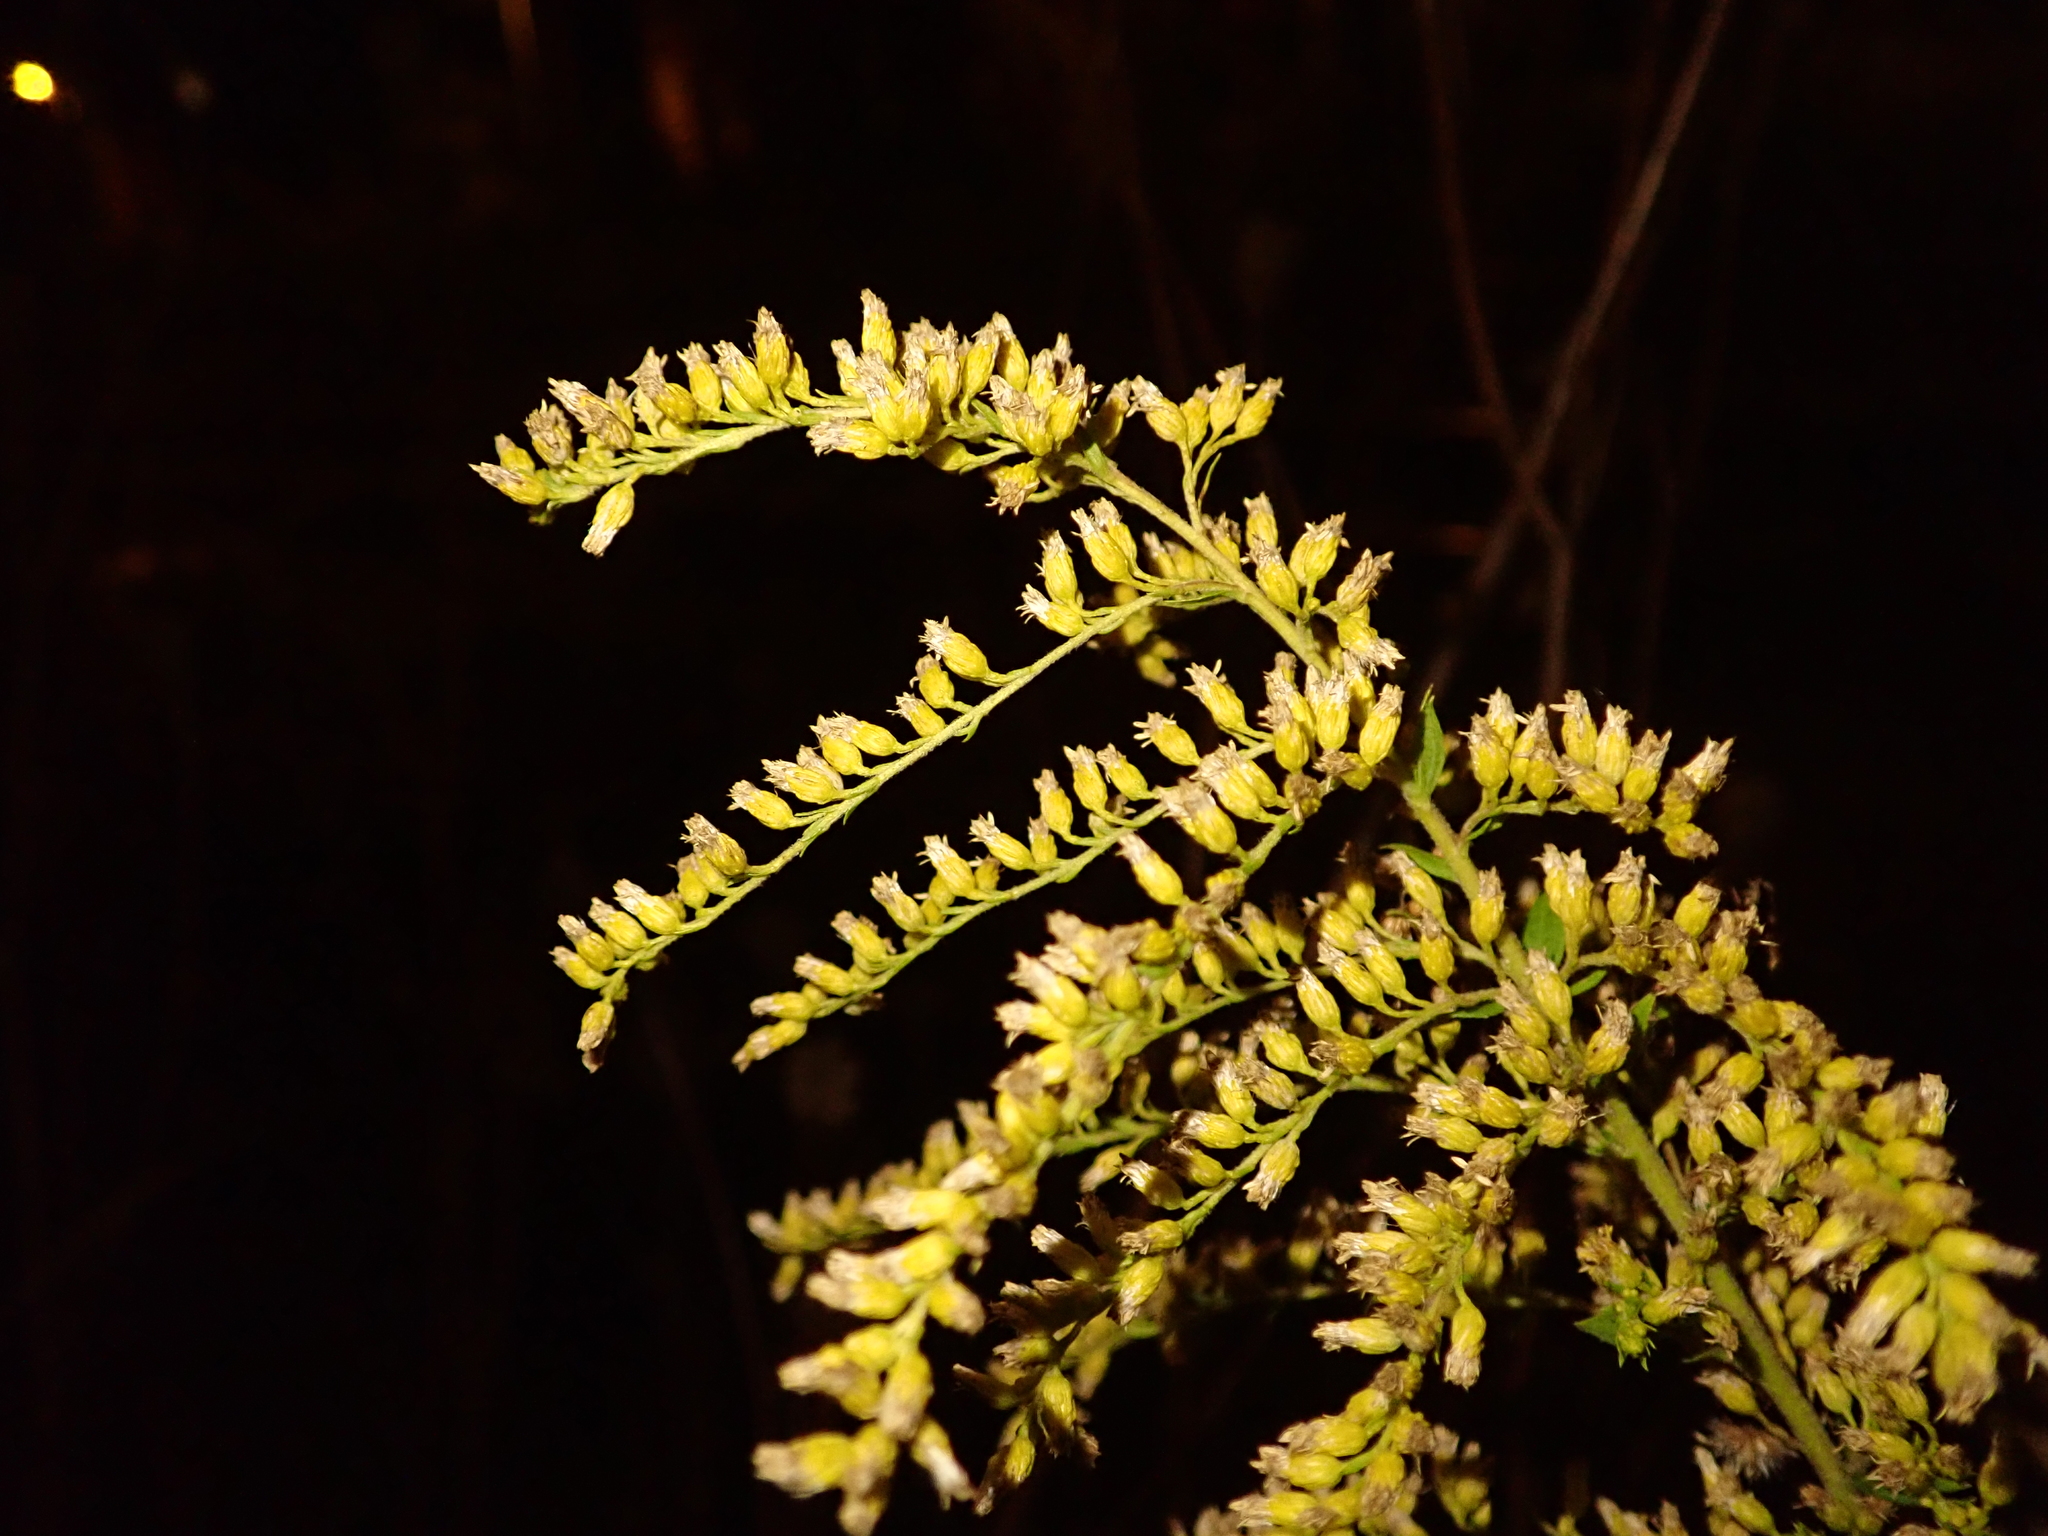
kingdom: Plantae
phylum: Tracheophyta
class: Magnoliopsida
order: Asterales
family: Asteraceae
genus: Solidago
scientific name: Solidago canadensis
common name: Canada goldenrod
